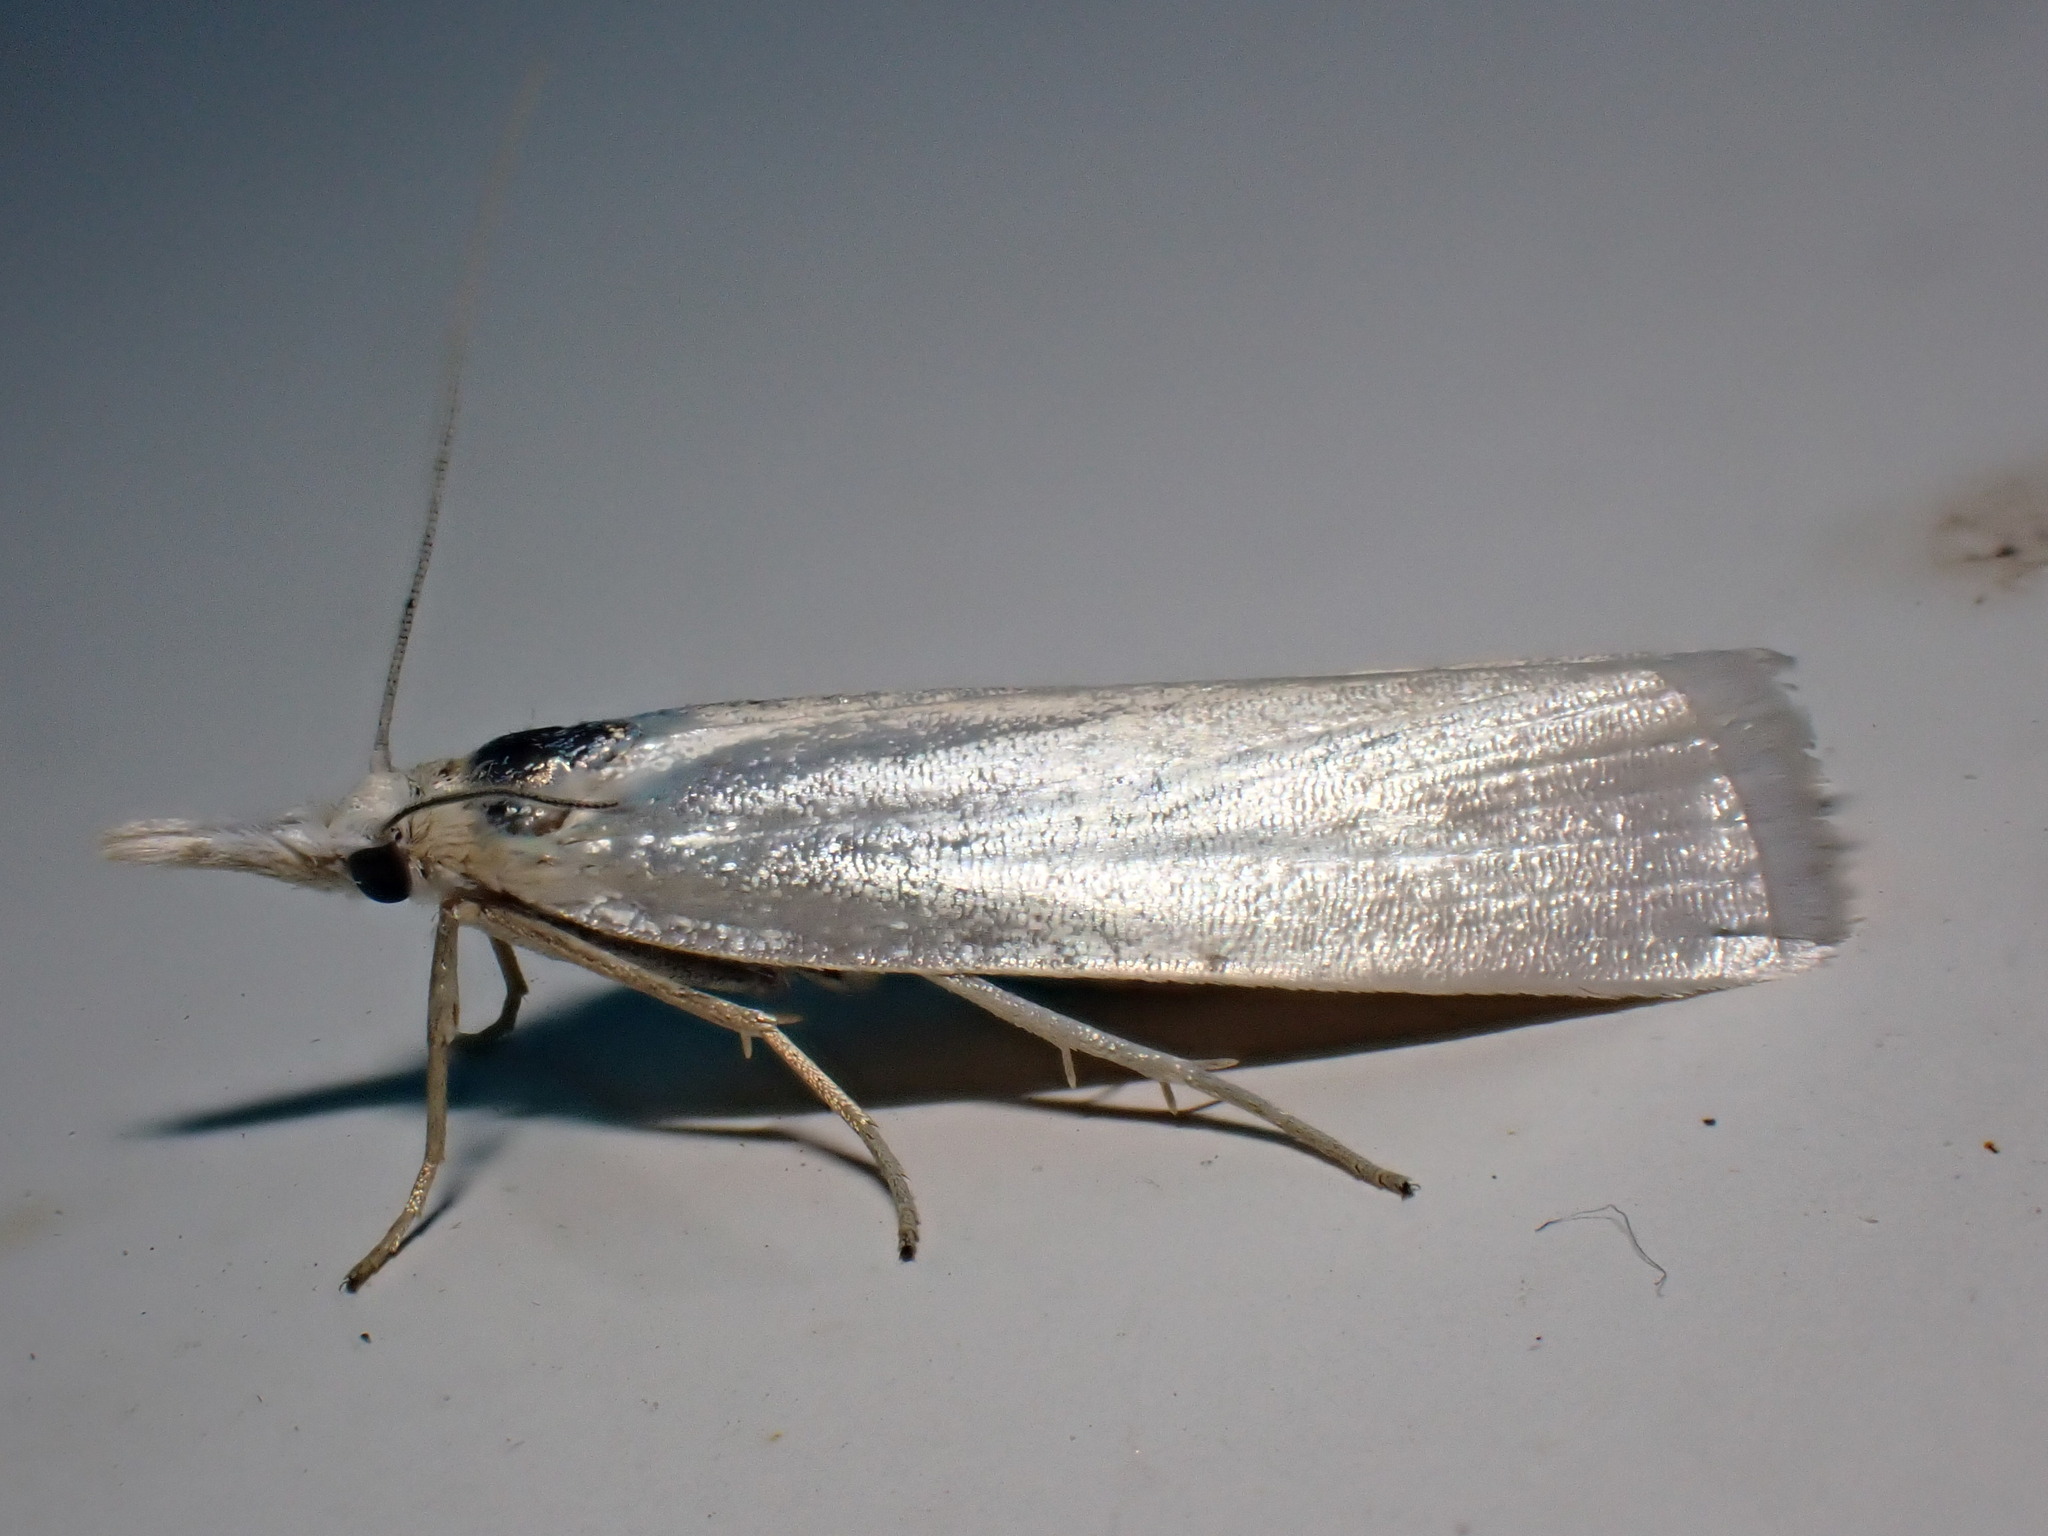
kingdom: Animalia
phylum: Arthropoda
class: Insecta
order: Lepidoptera
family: Crambidae
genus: Crambus
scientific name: Crambus perlellus
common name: Yellow satin veneer
